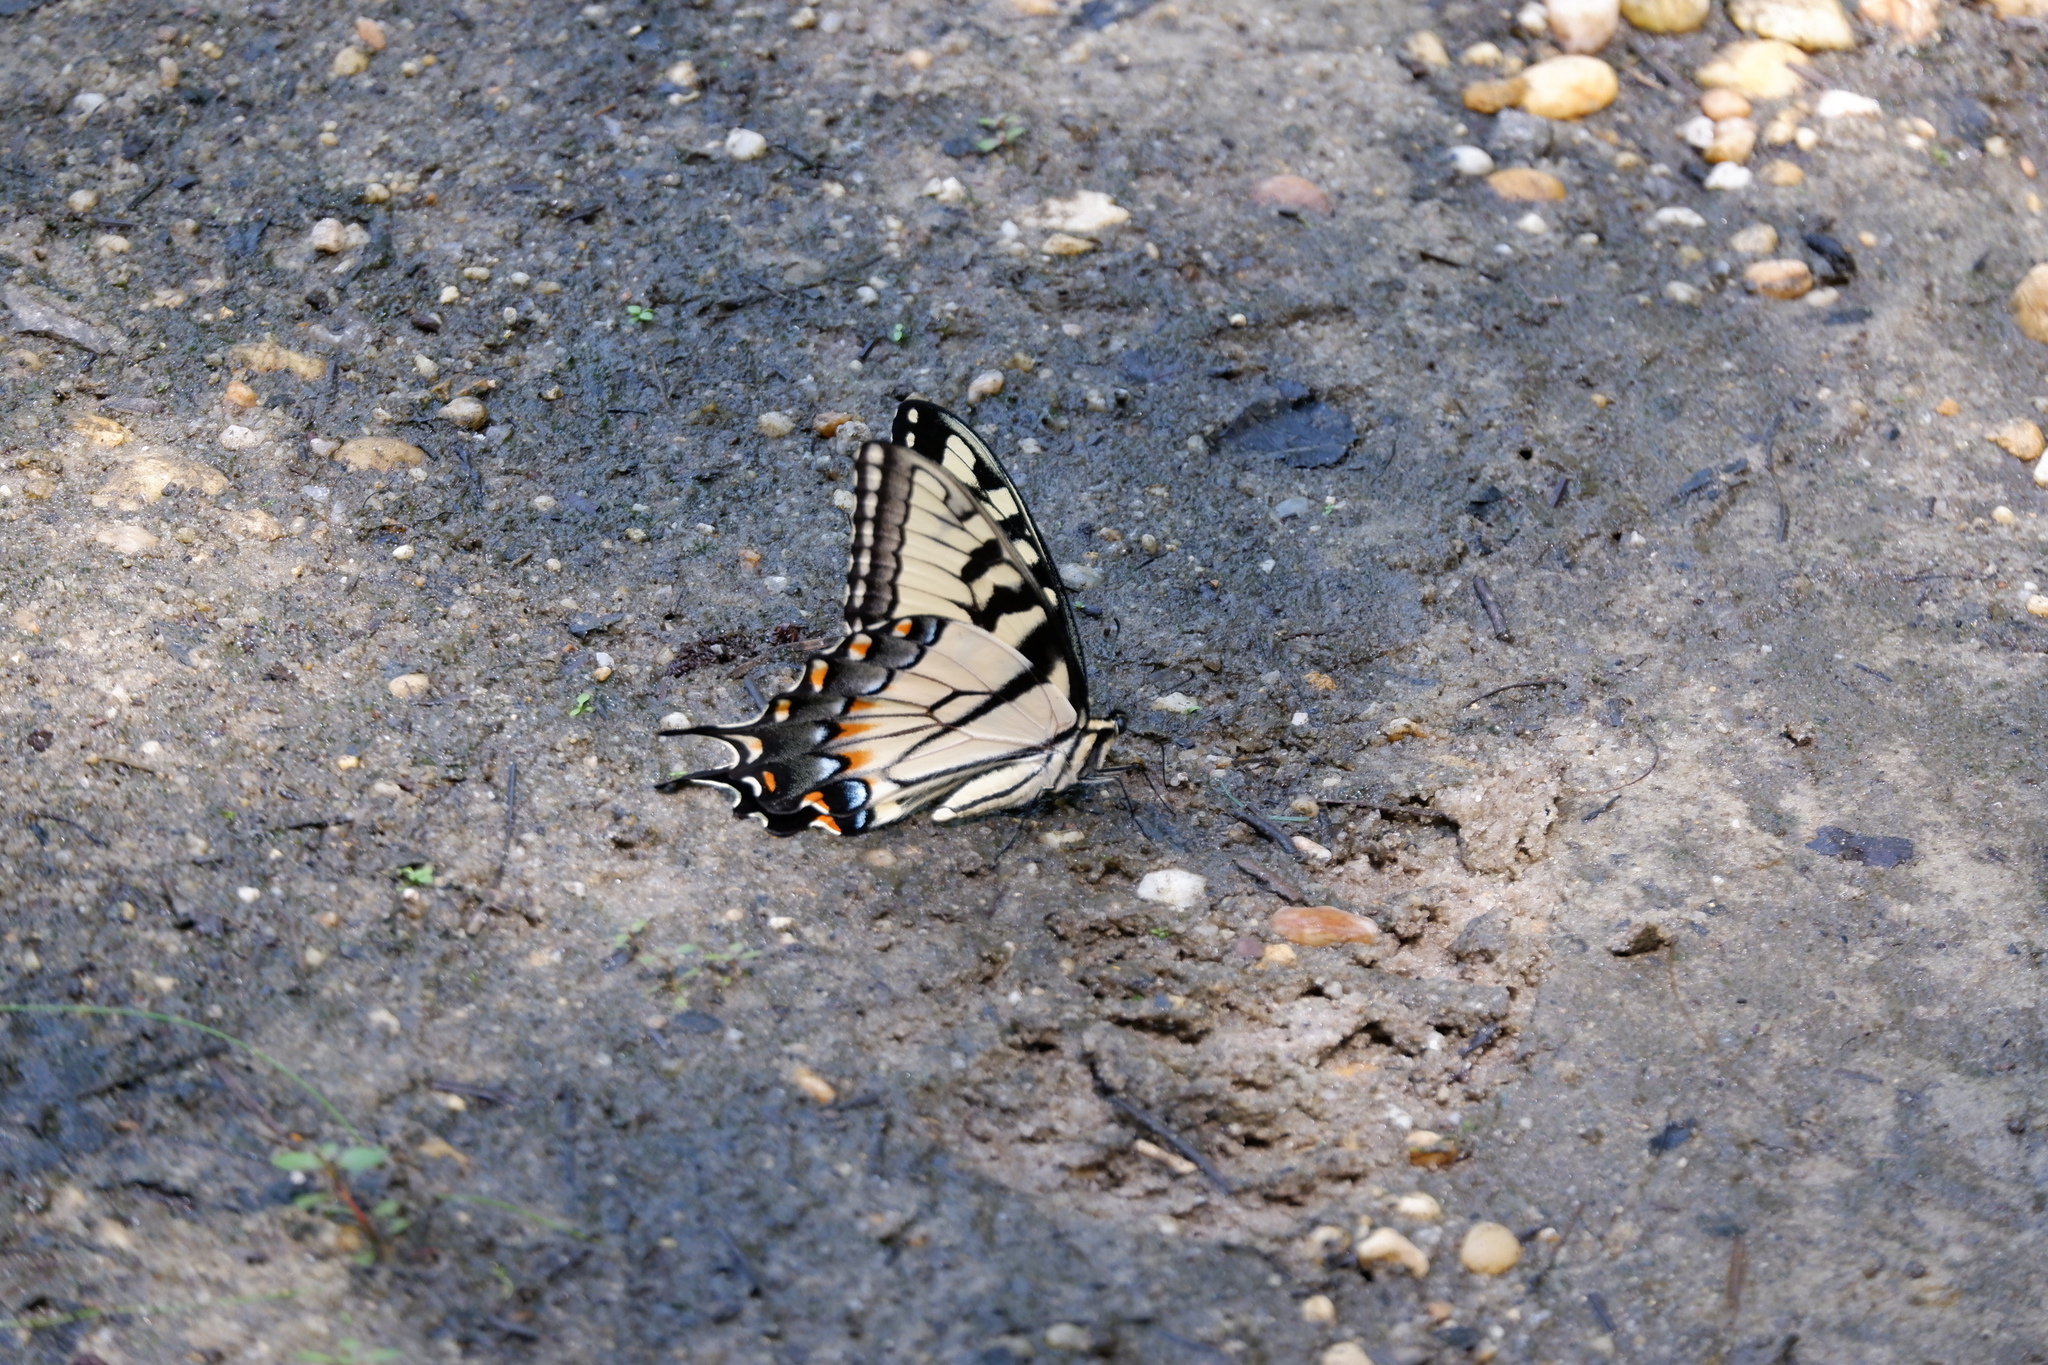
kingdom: Animalia
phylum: Arthropoda
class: Insecta
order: Lepidoptera
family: Papilionidae
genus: Papilio
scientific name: Papilio glaucus
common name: Tiger swallowtail
